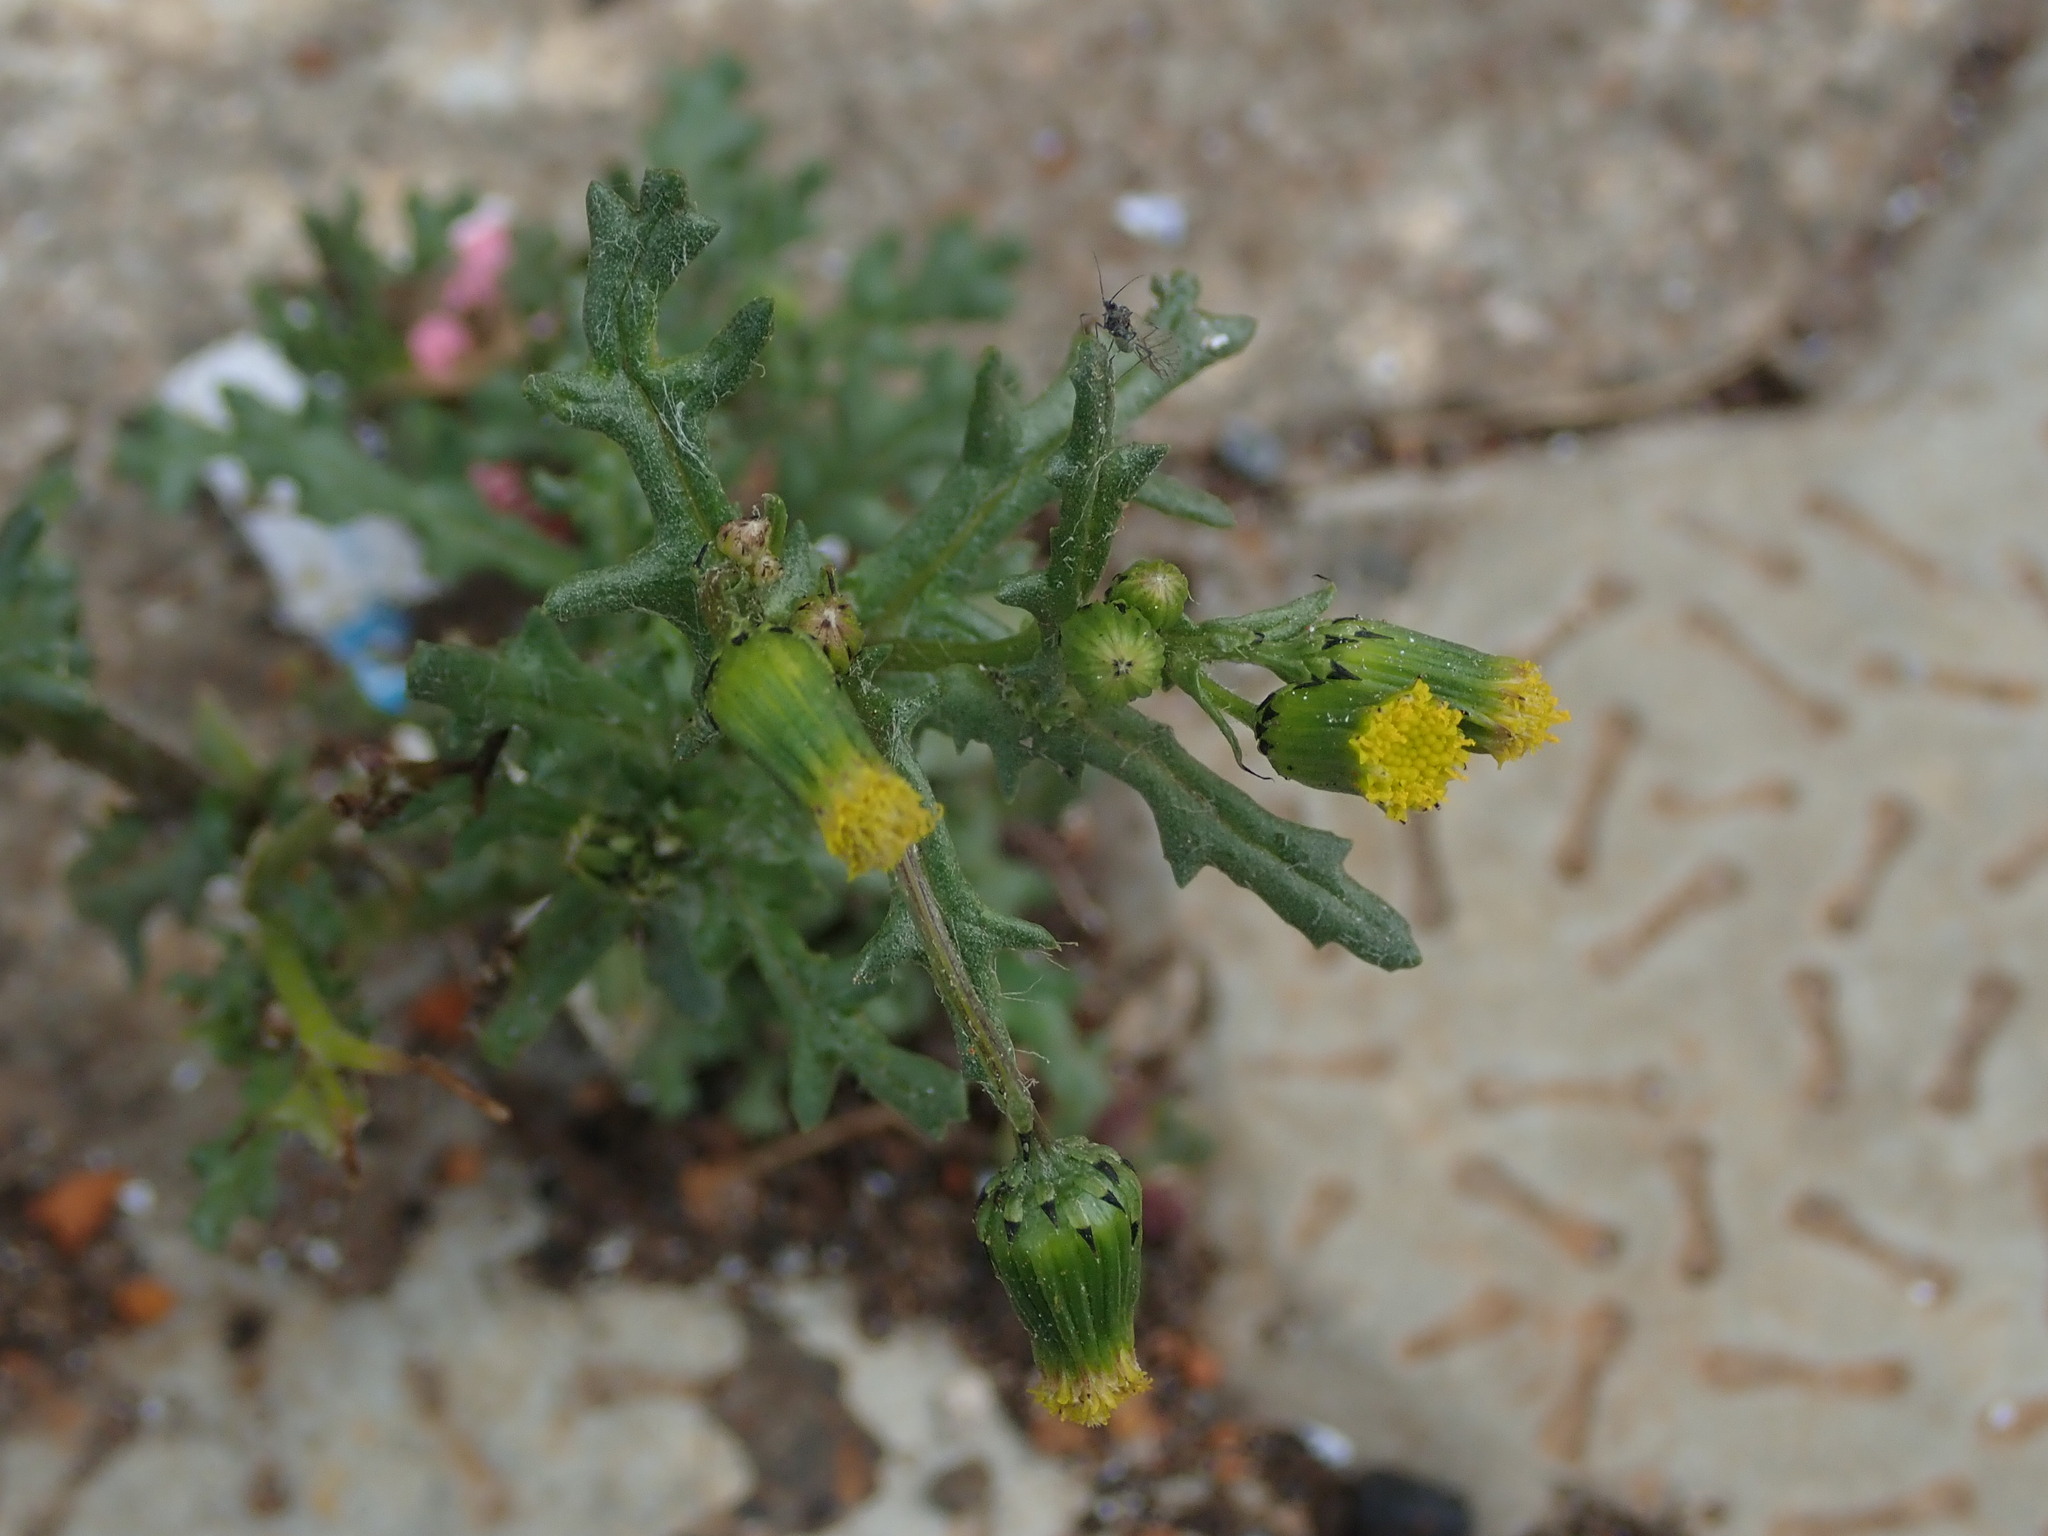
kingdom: Plantae
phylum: Tracheophyta
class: Magnoliopsida
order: Asterales
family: Asteraceae
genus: Senecio
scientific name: Senecio vulgaris
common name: Old-man-in-the-spring
